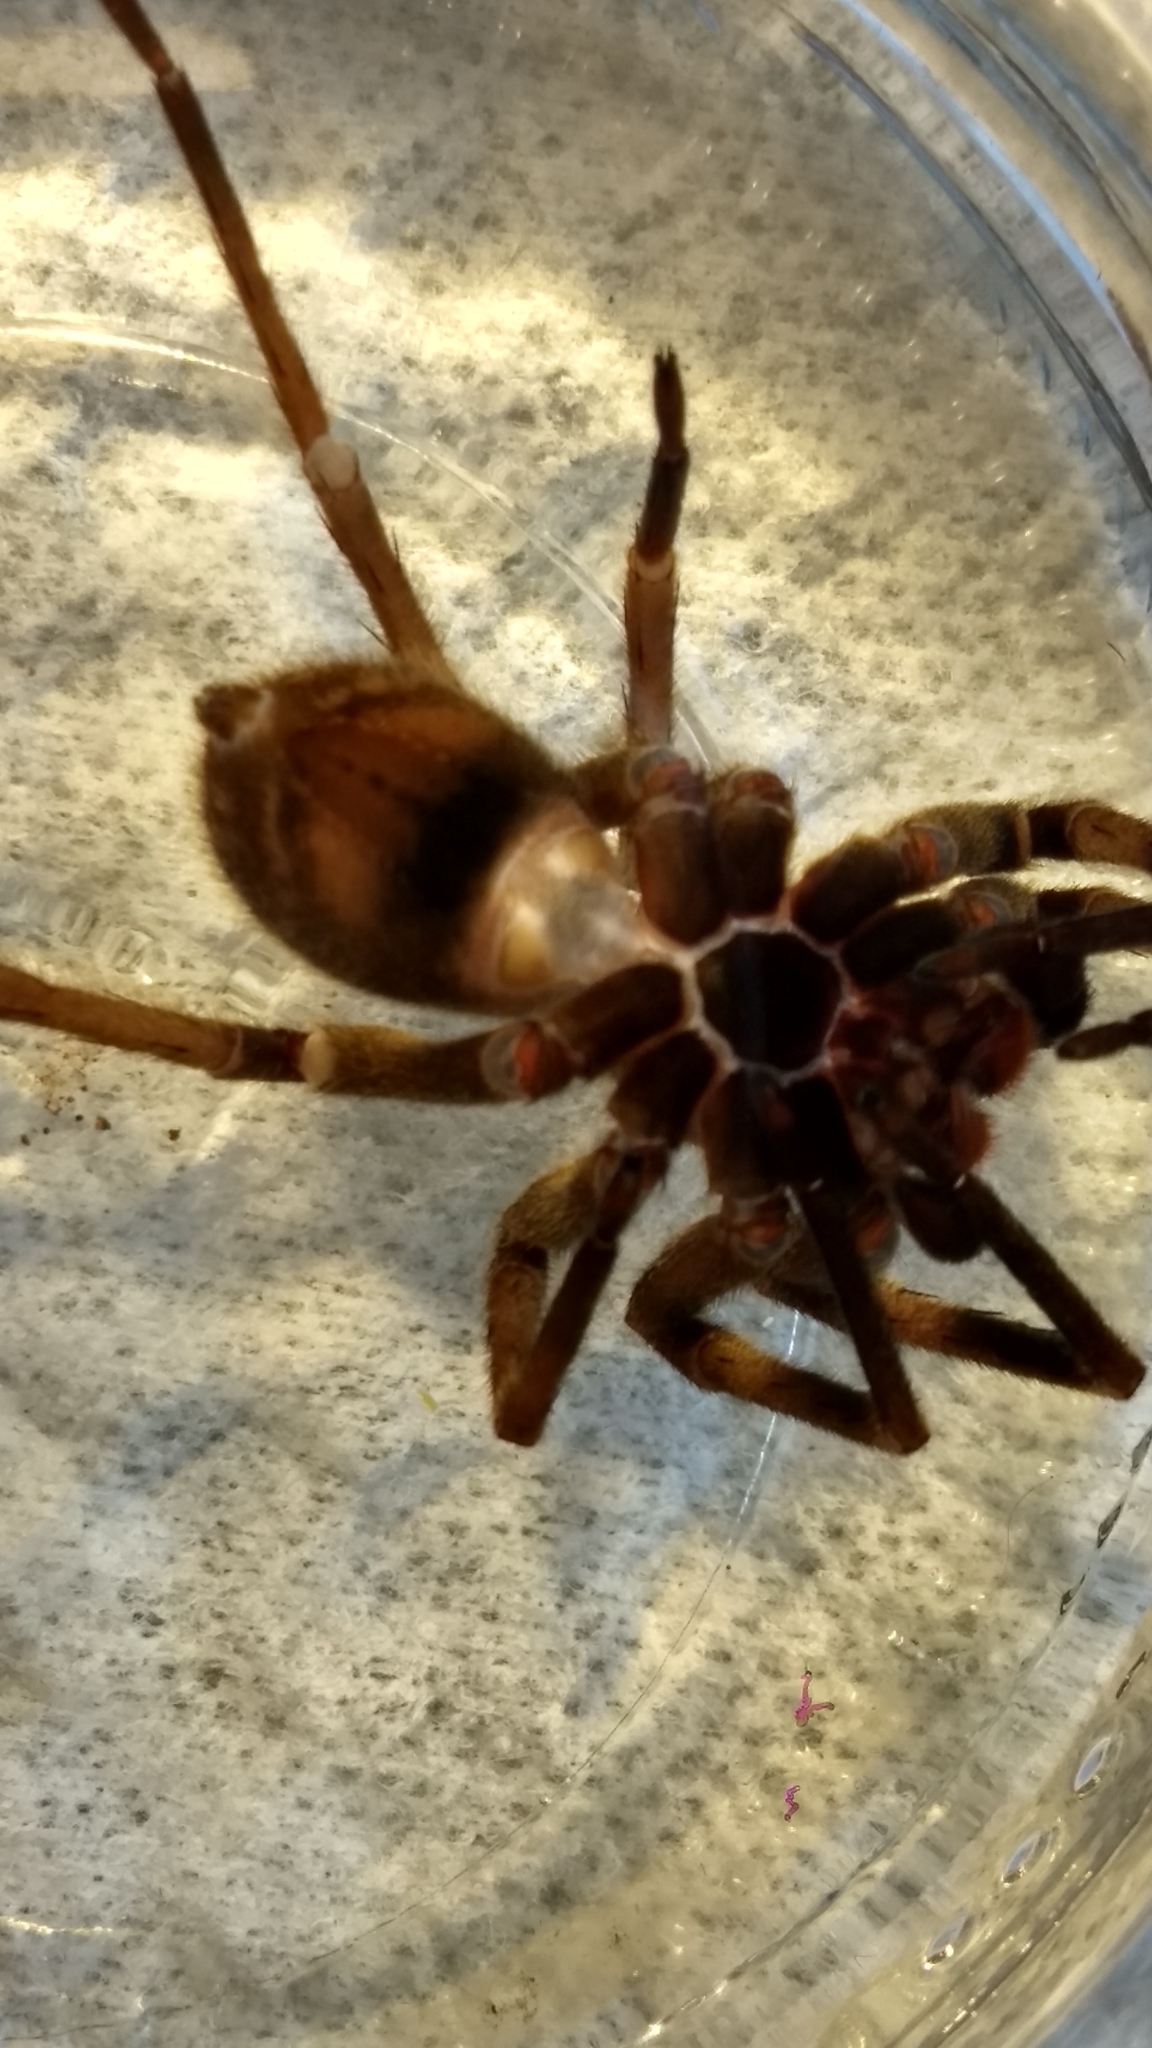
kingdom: Animalia
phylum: Arthropoda
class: Arachnida
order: Araneae
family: Ctenidae
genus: Phoneutria
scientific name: Phoneutria nigriventer
